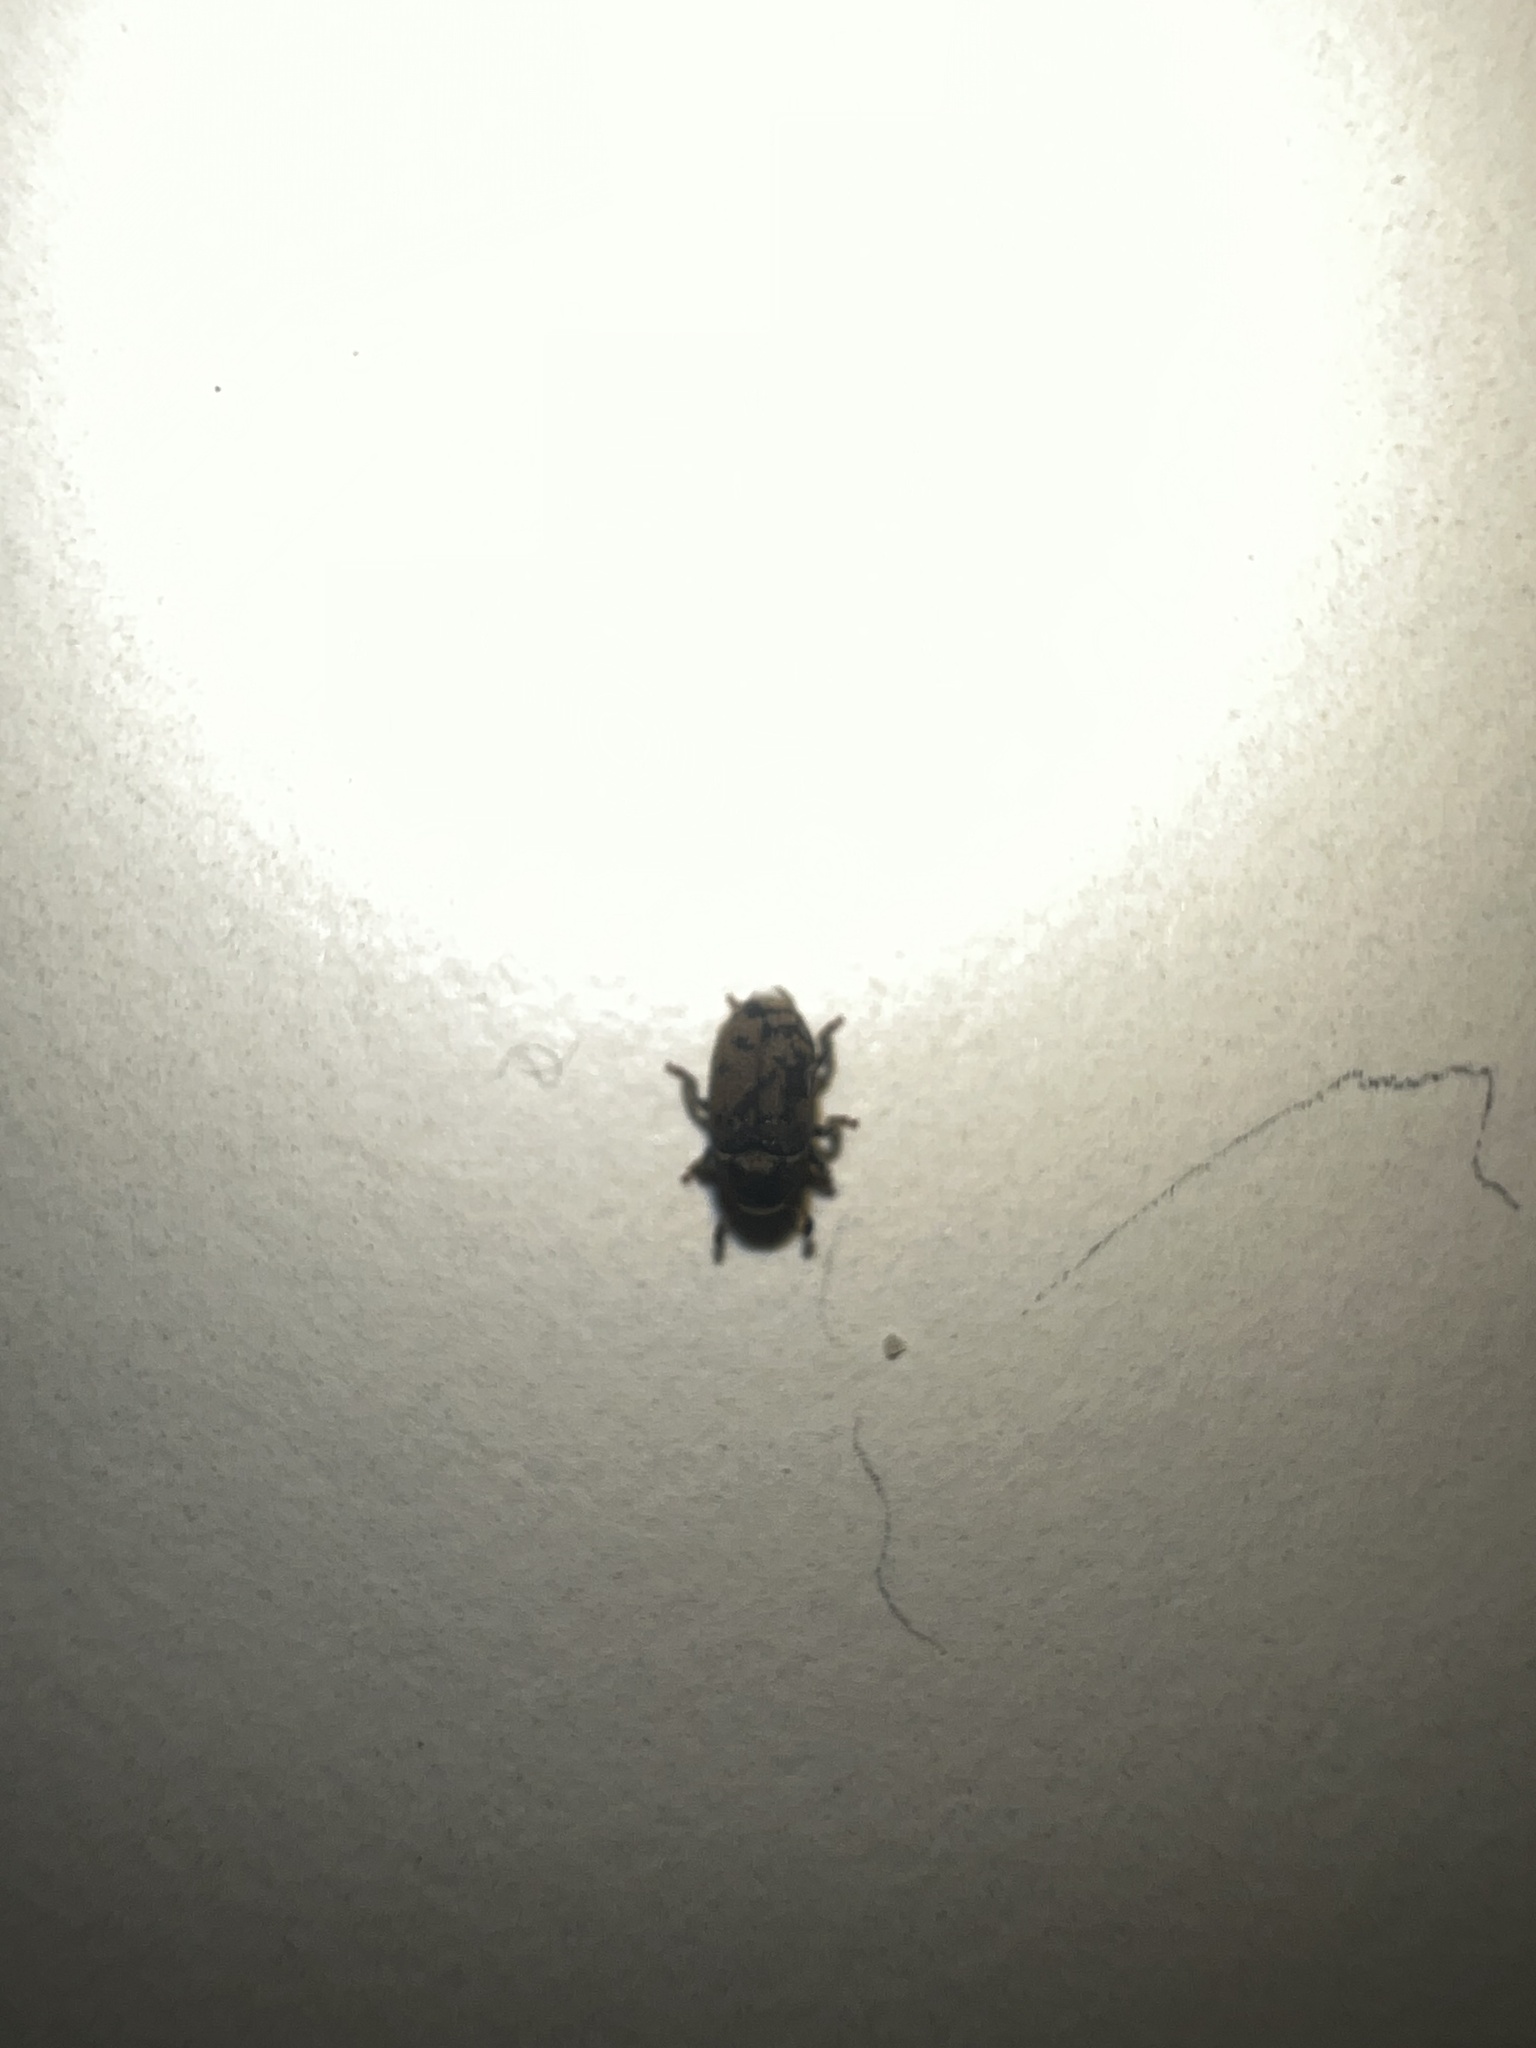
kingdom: Animalia
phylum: Arthropoda
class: Insecta
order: Coleoptera
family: Curculionidae
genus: Hylesinus
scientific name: Hylesinus varius
